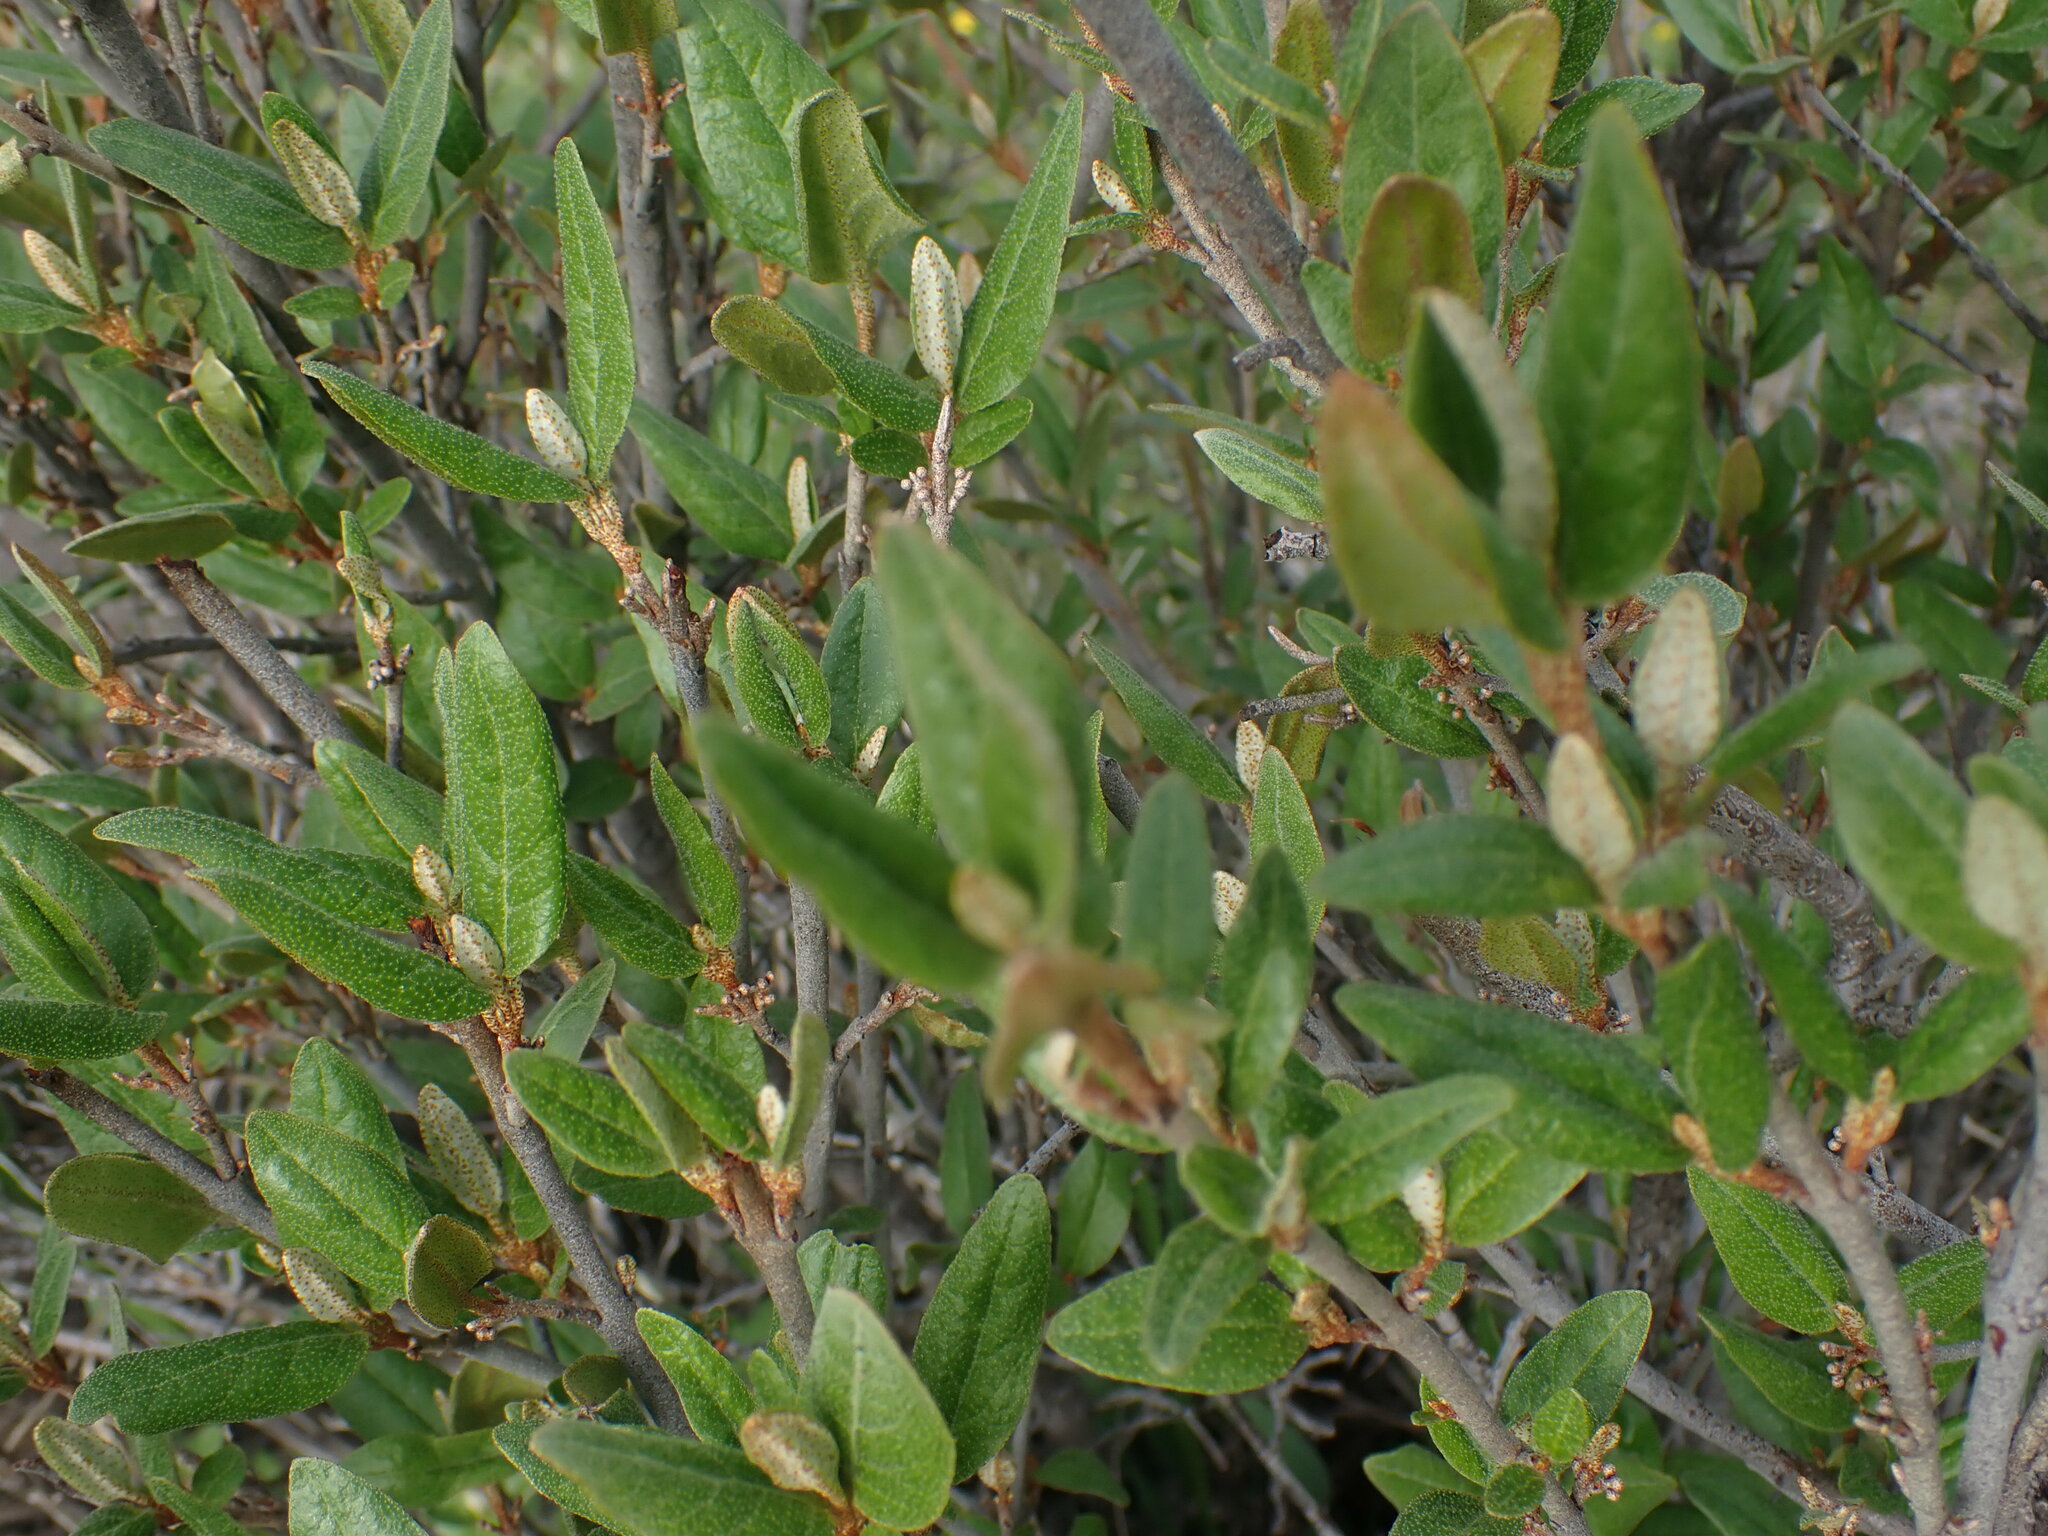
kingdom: Plantae
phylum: Tracheophyta
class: Magnoliopsida
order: Rosales
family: Elaeagnaceae
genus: Shepherdia
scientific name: Shepherdia canadensis
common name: Soapberry
